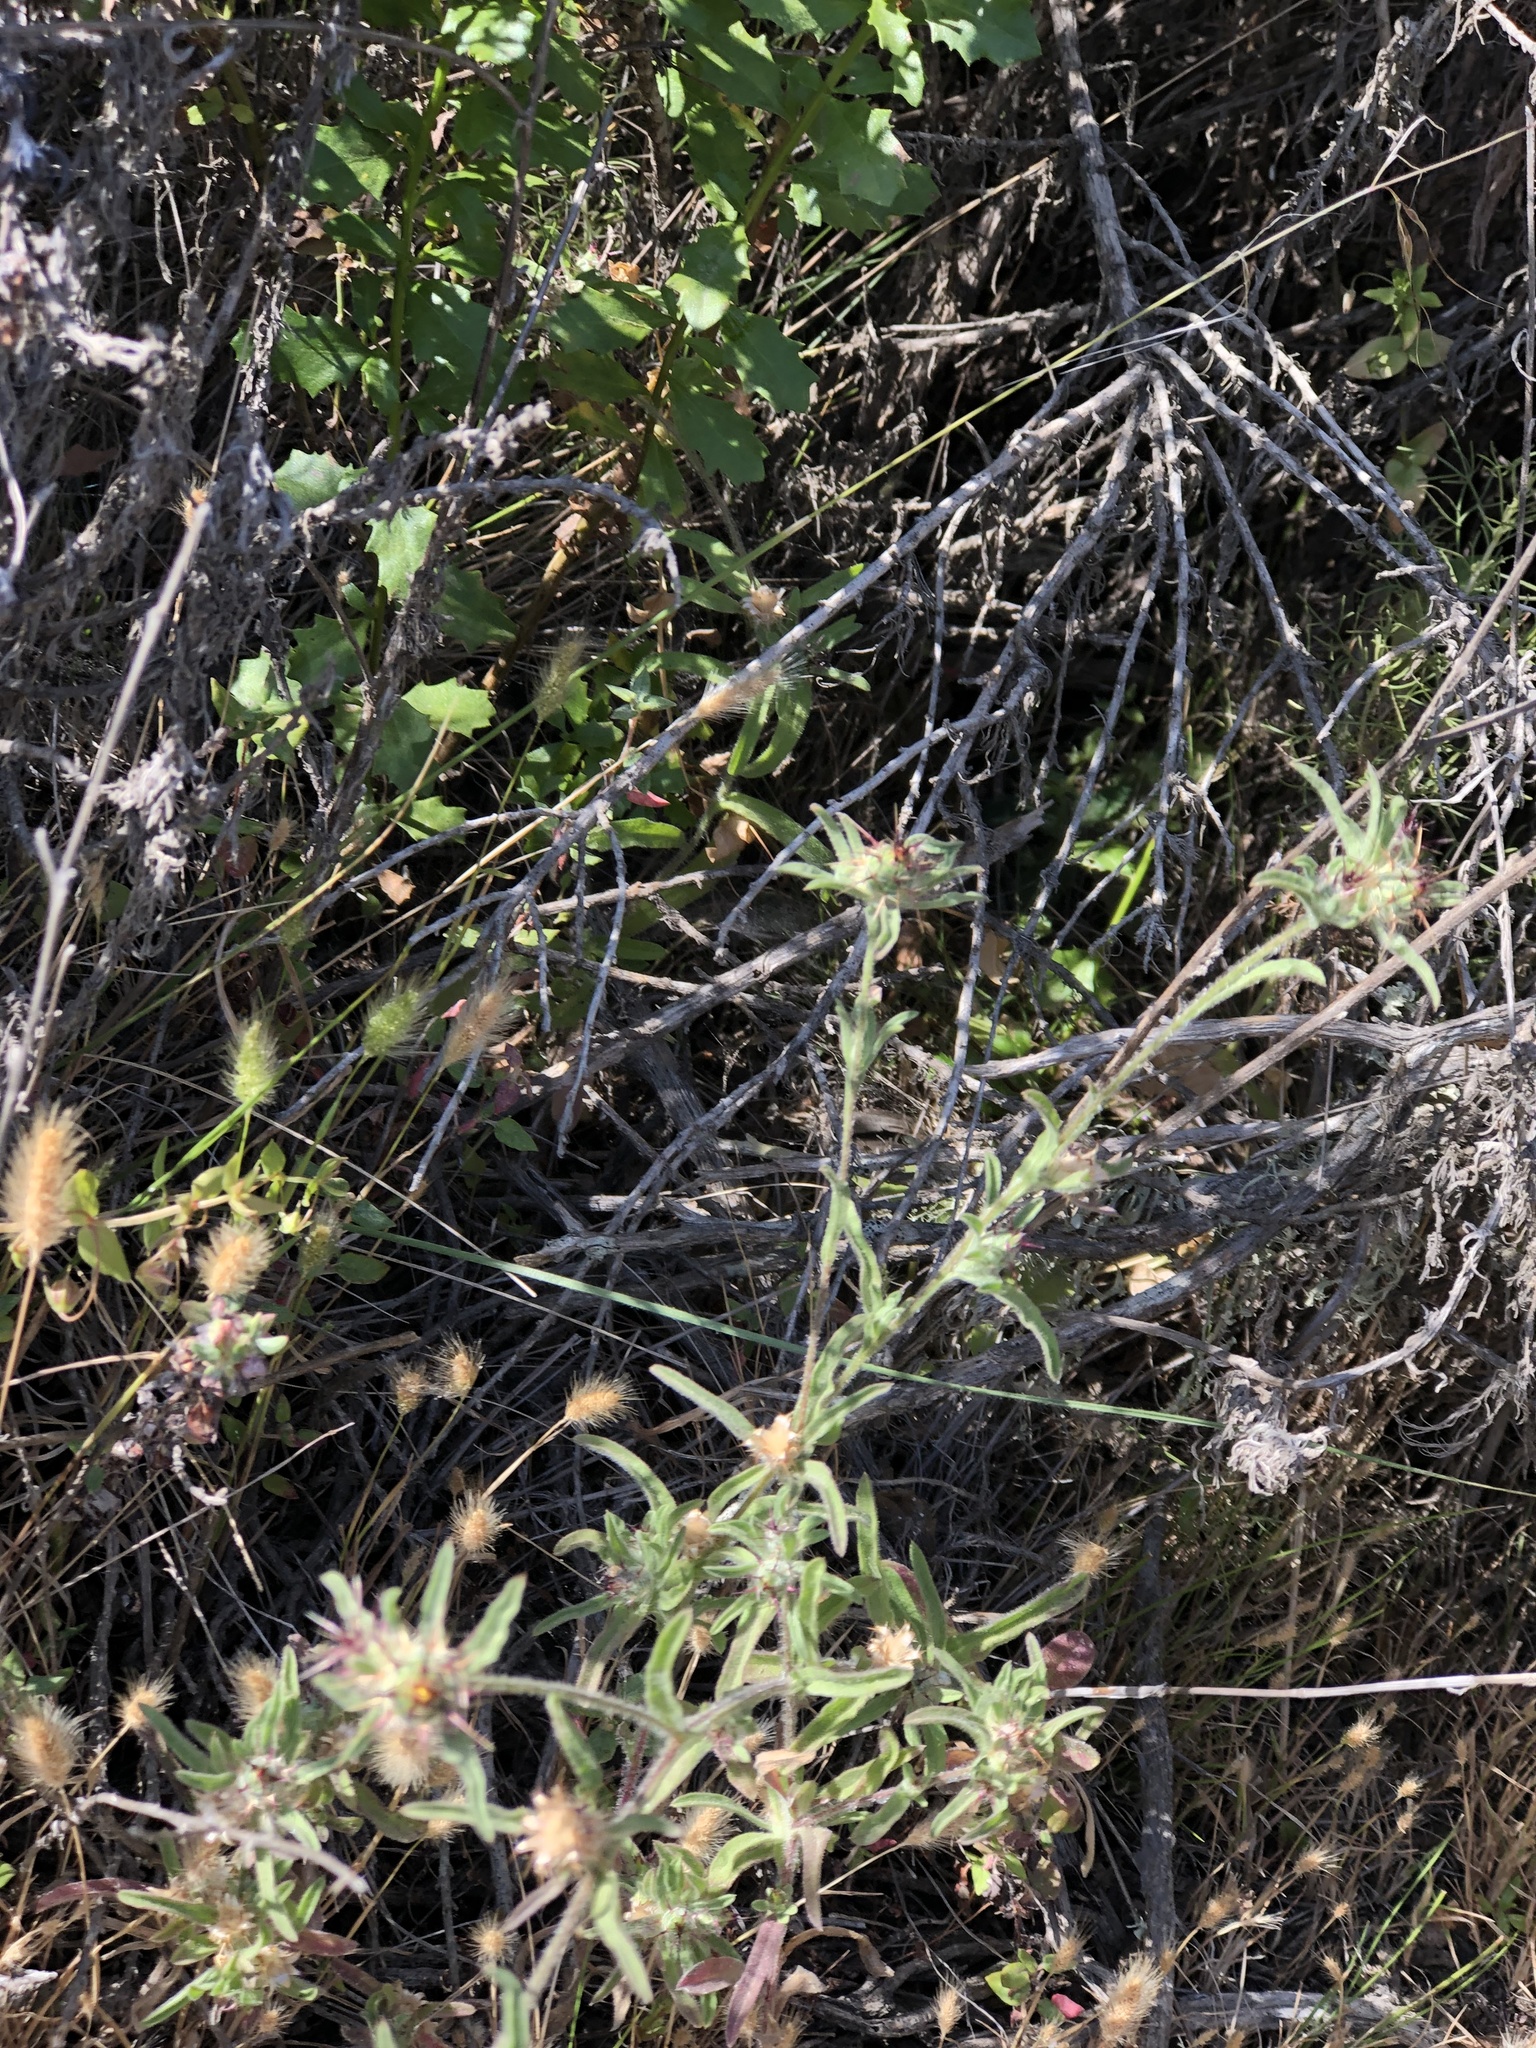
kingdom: Plantae
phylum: Tracheophyta
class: Magnoliopsida
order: Asterales
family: Asteraceae
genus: Centaurea
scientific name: Centaurea melitensis
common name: Maltese star-thistle
